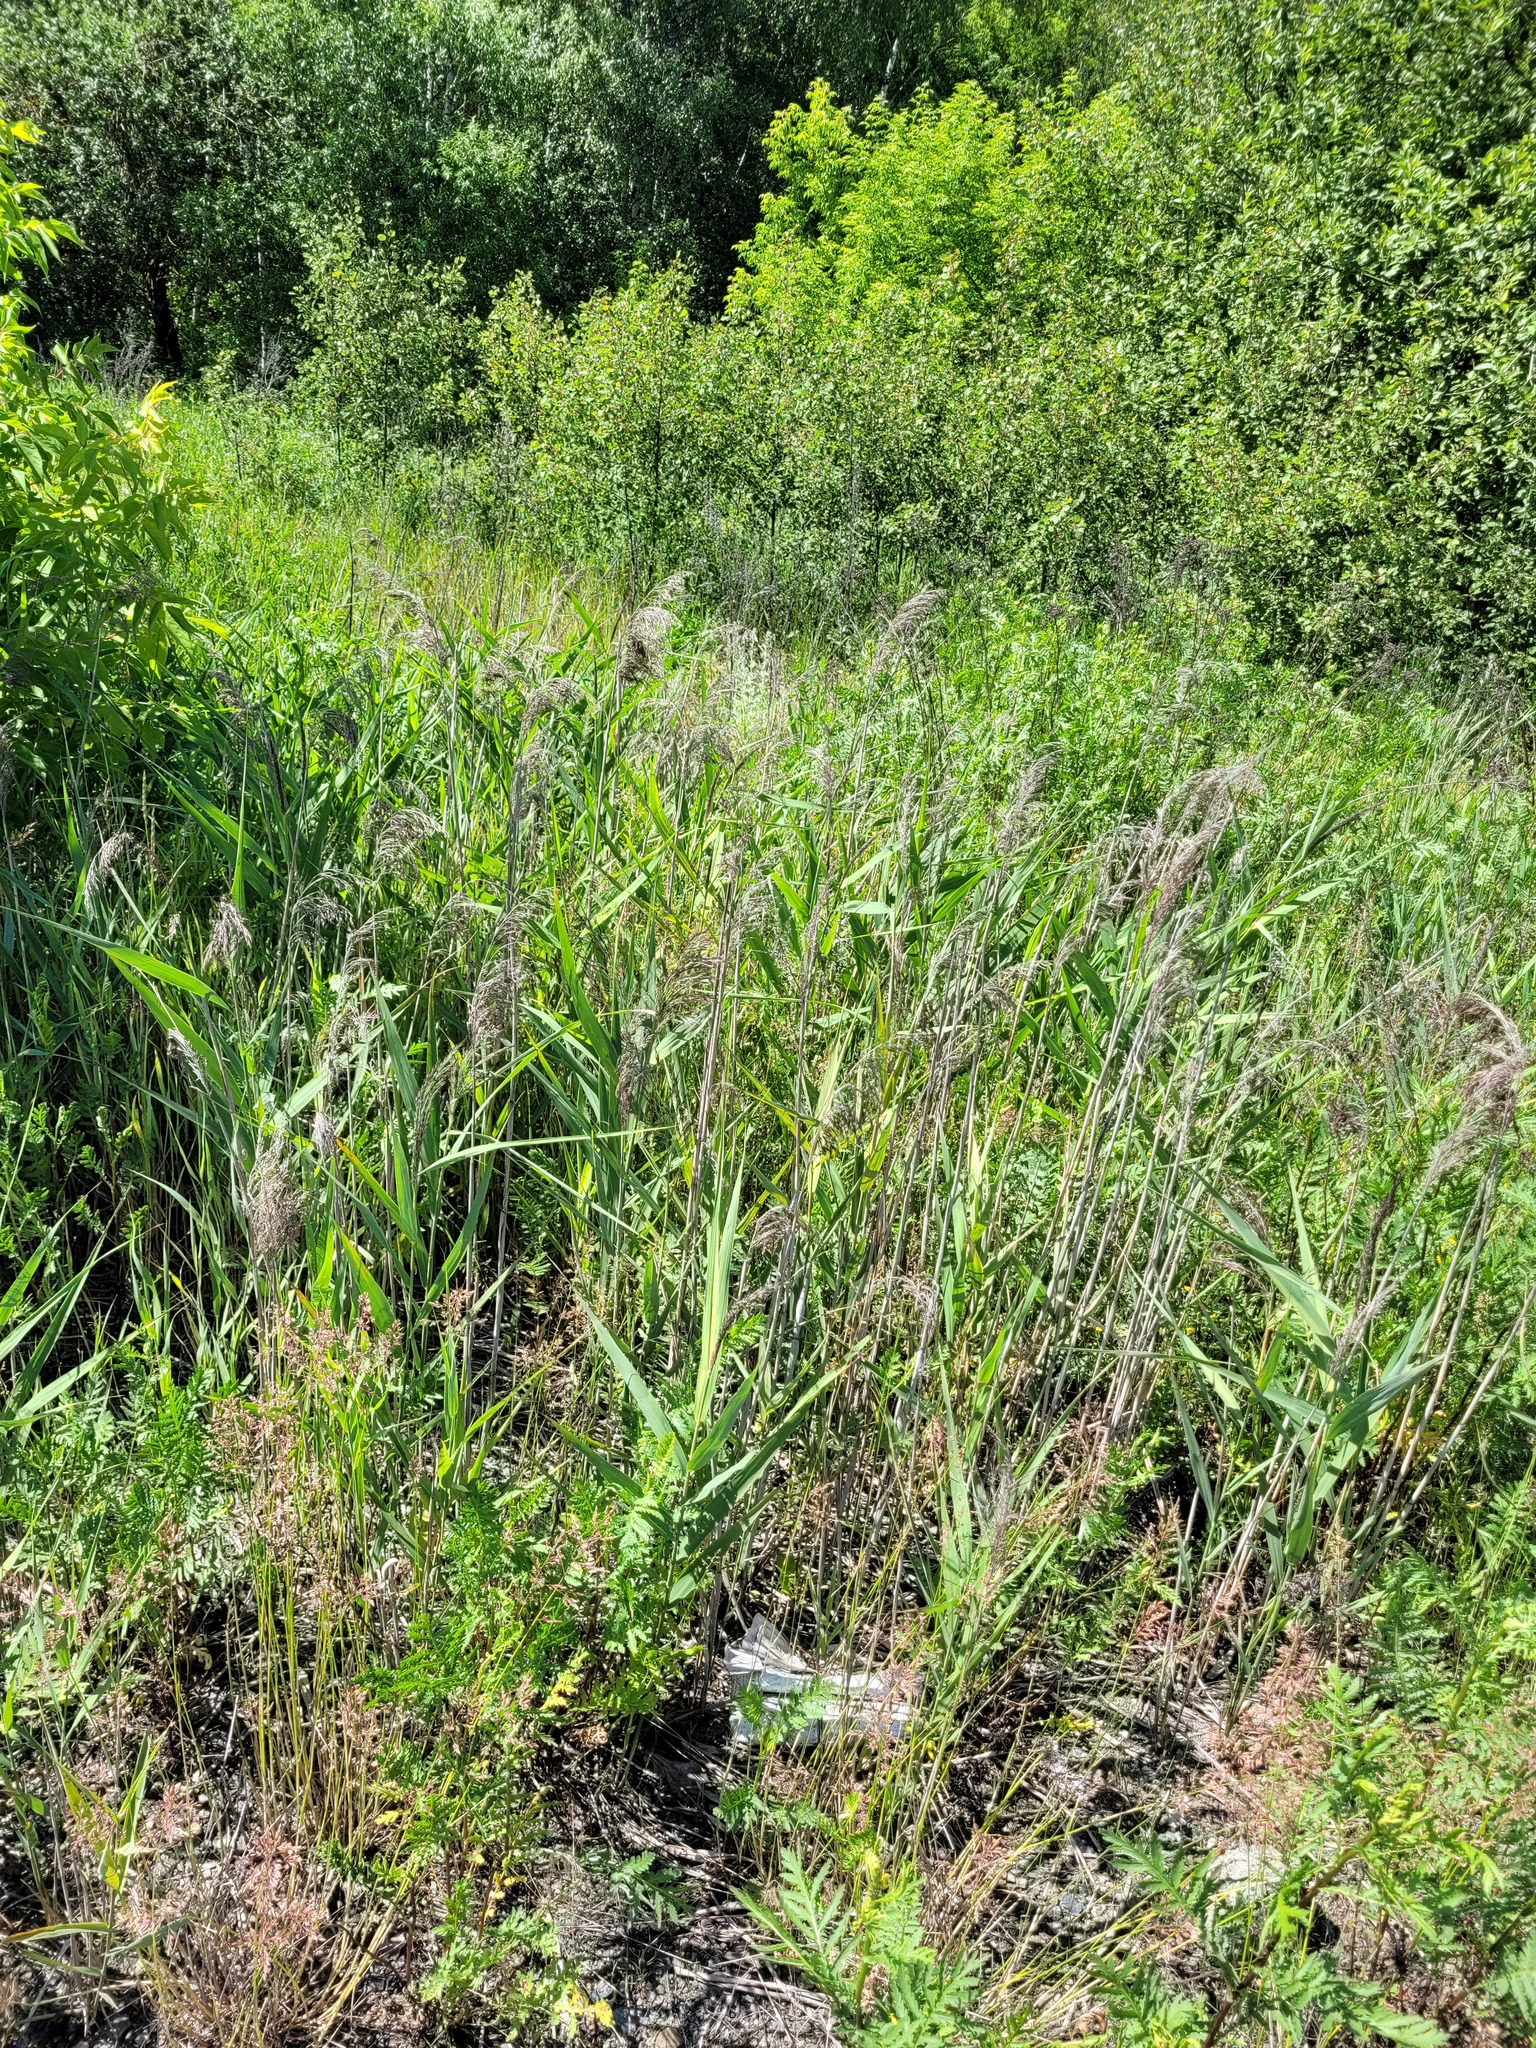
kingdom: Plantae
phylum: Tracheophyta
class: Liliopsida
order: Poales
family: Poaceae
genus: Phragmites
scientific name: Phragmites australis
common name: Common reed
